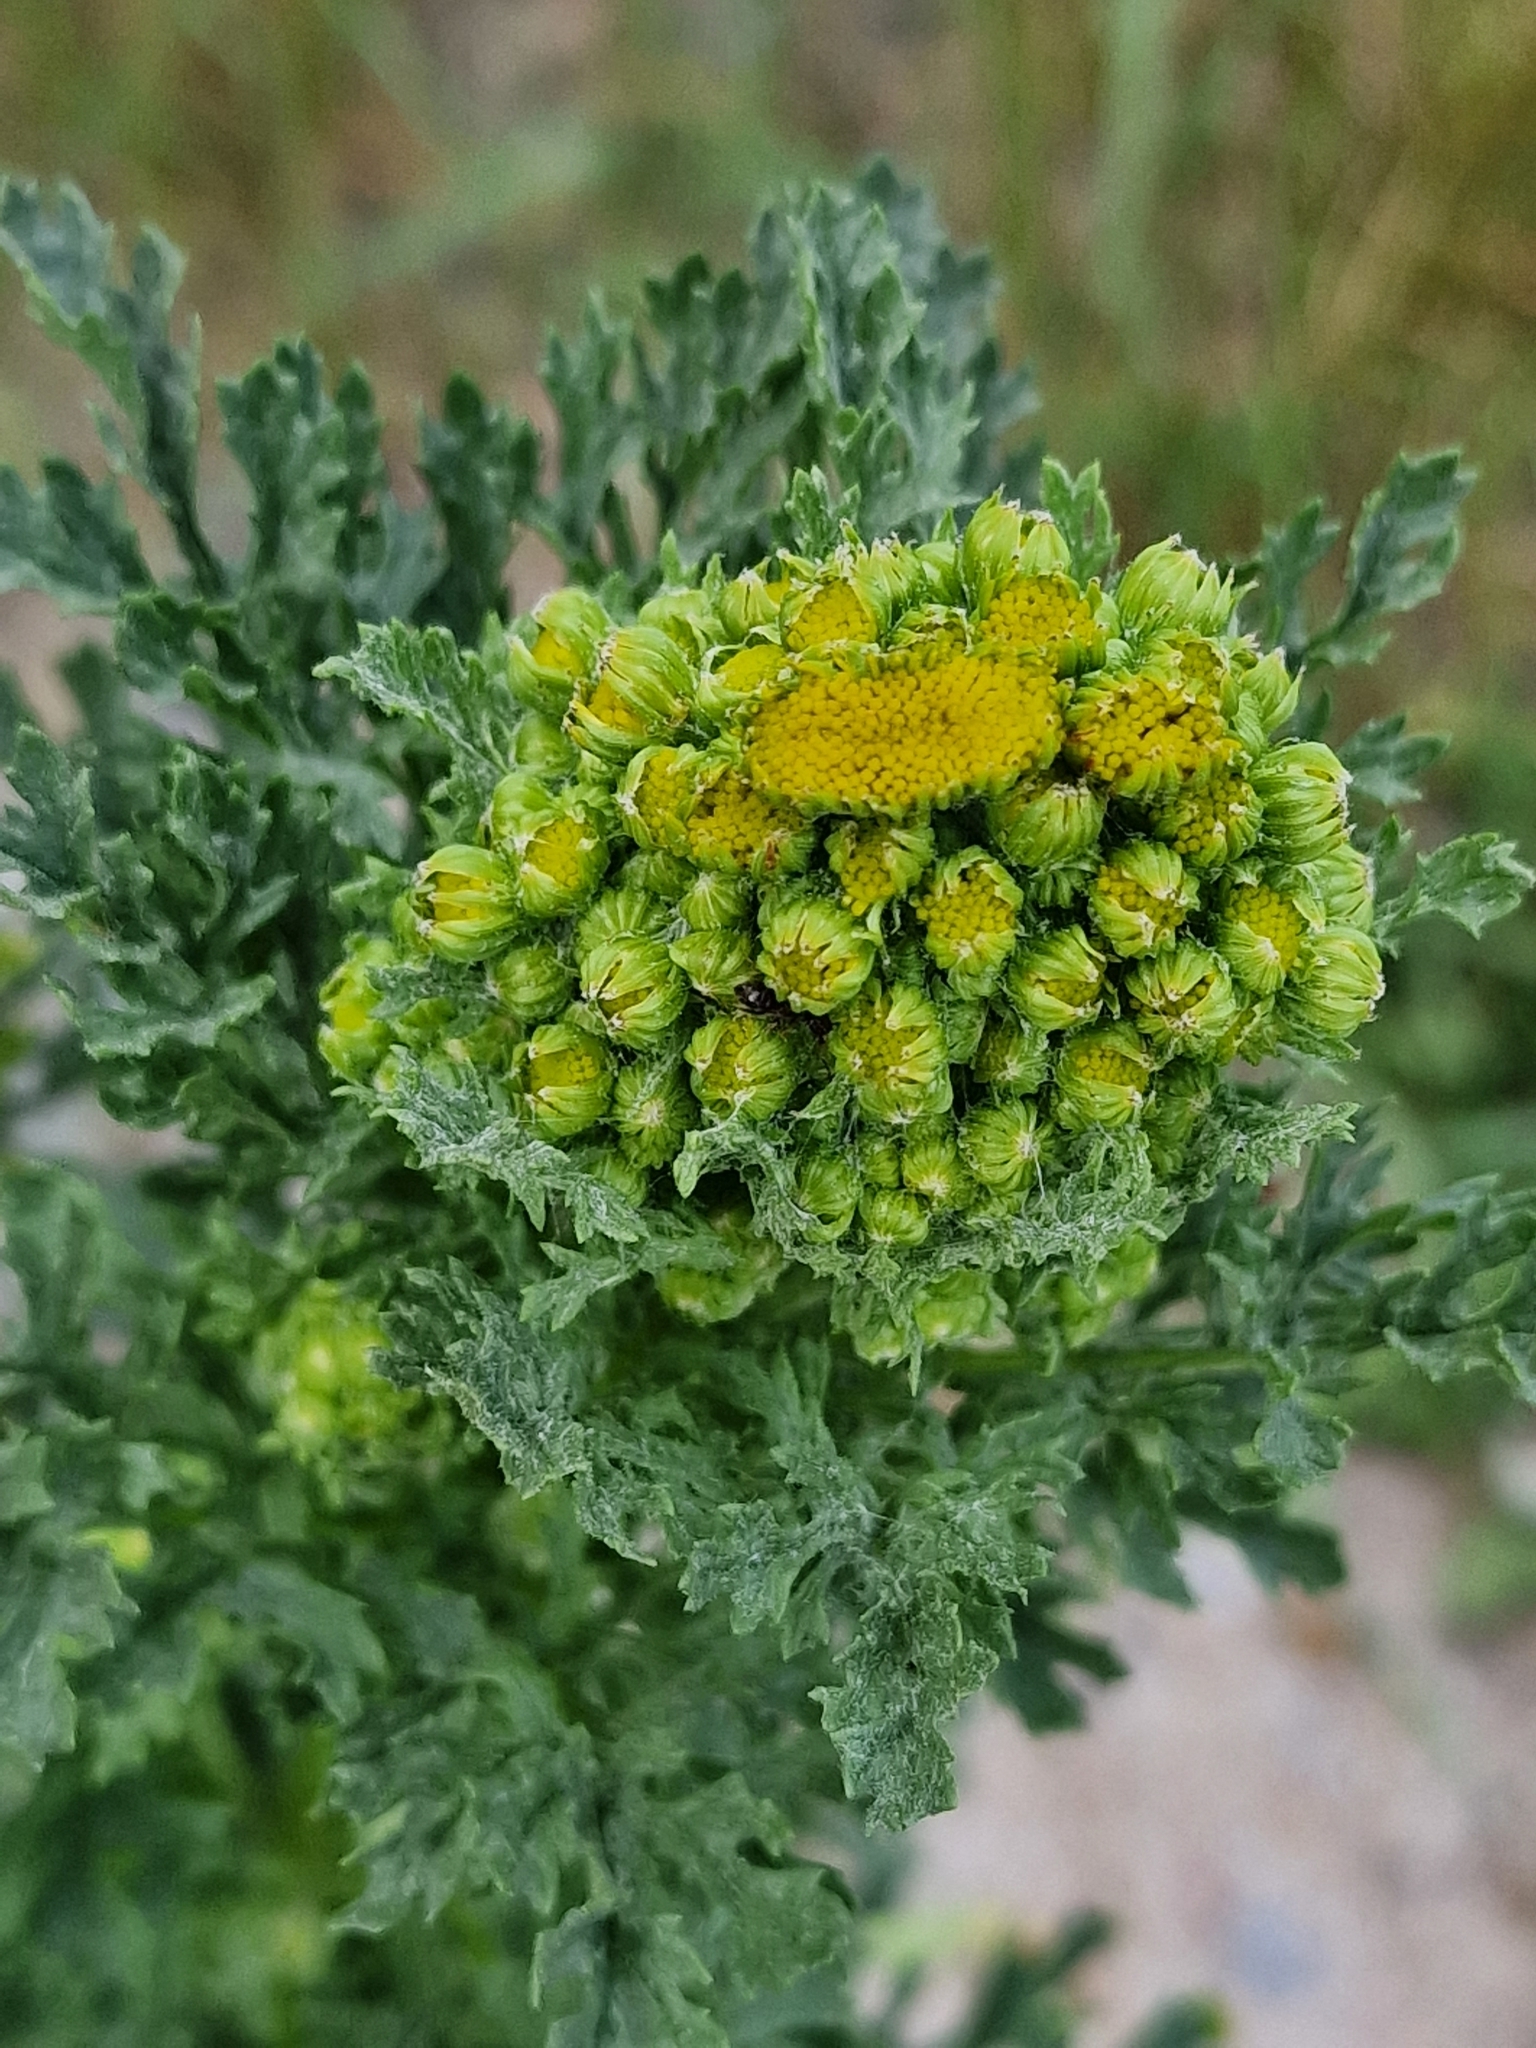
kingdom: Plantae
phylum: Tracheophyta
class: Magnoliopsida
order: Asterales
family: Asteraceae
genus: Jacobaea
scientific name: Jacobaea vulgaris
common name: Stinking willie
